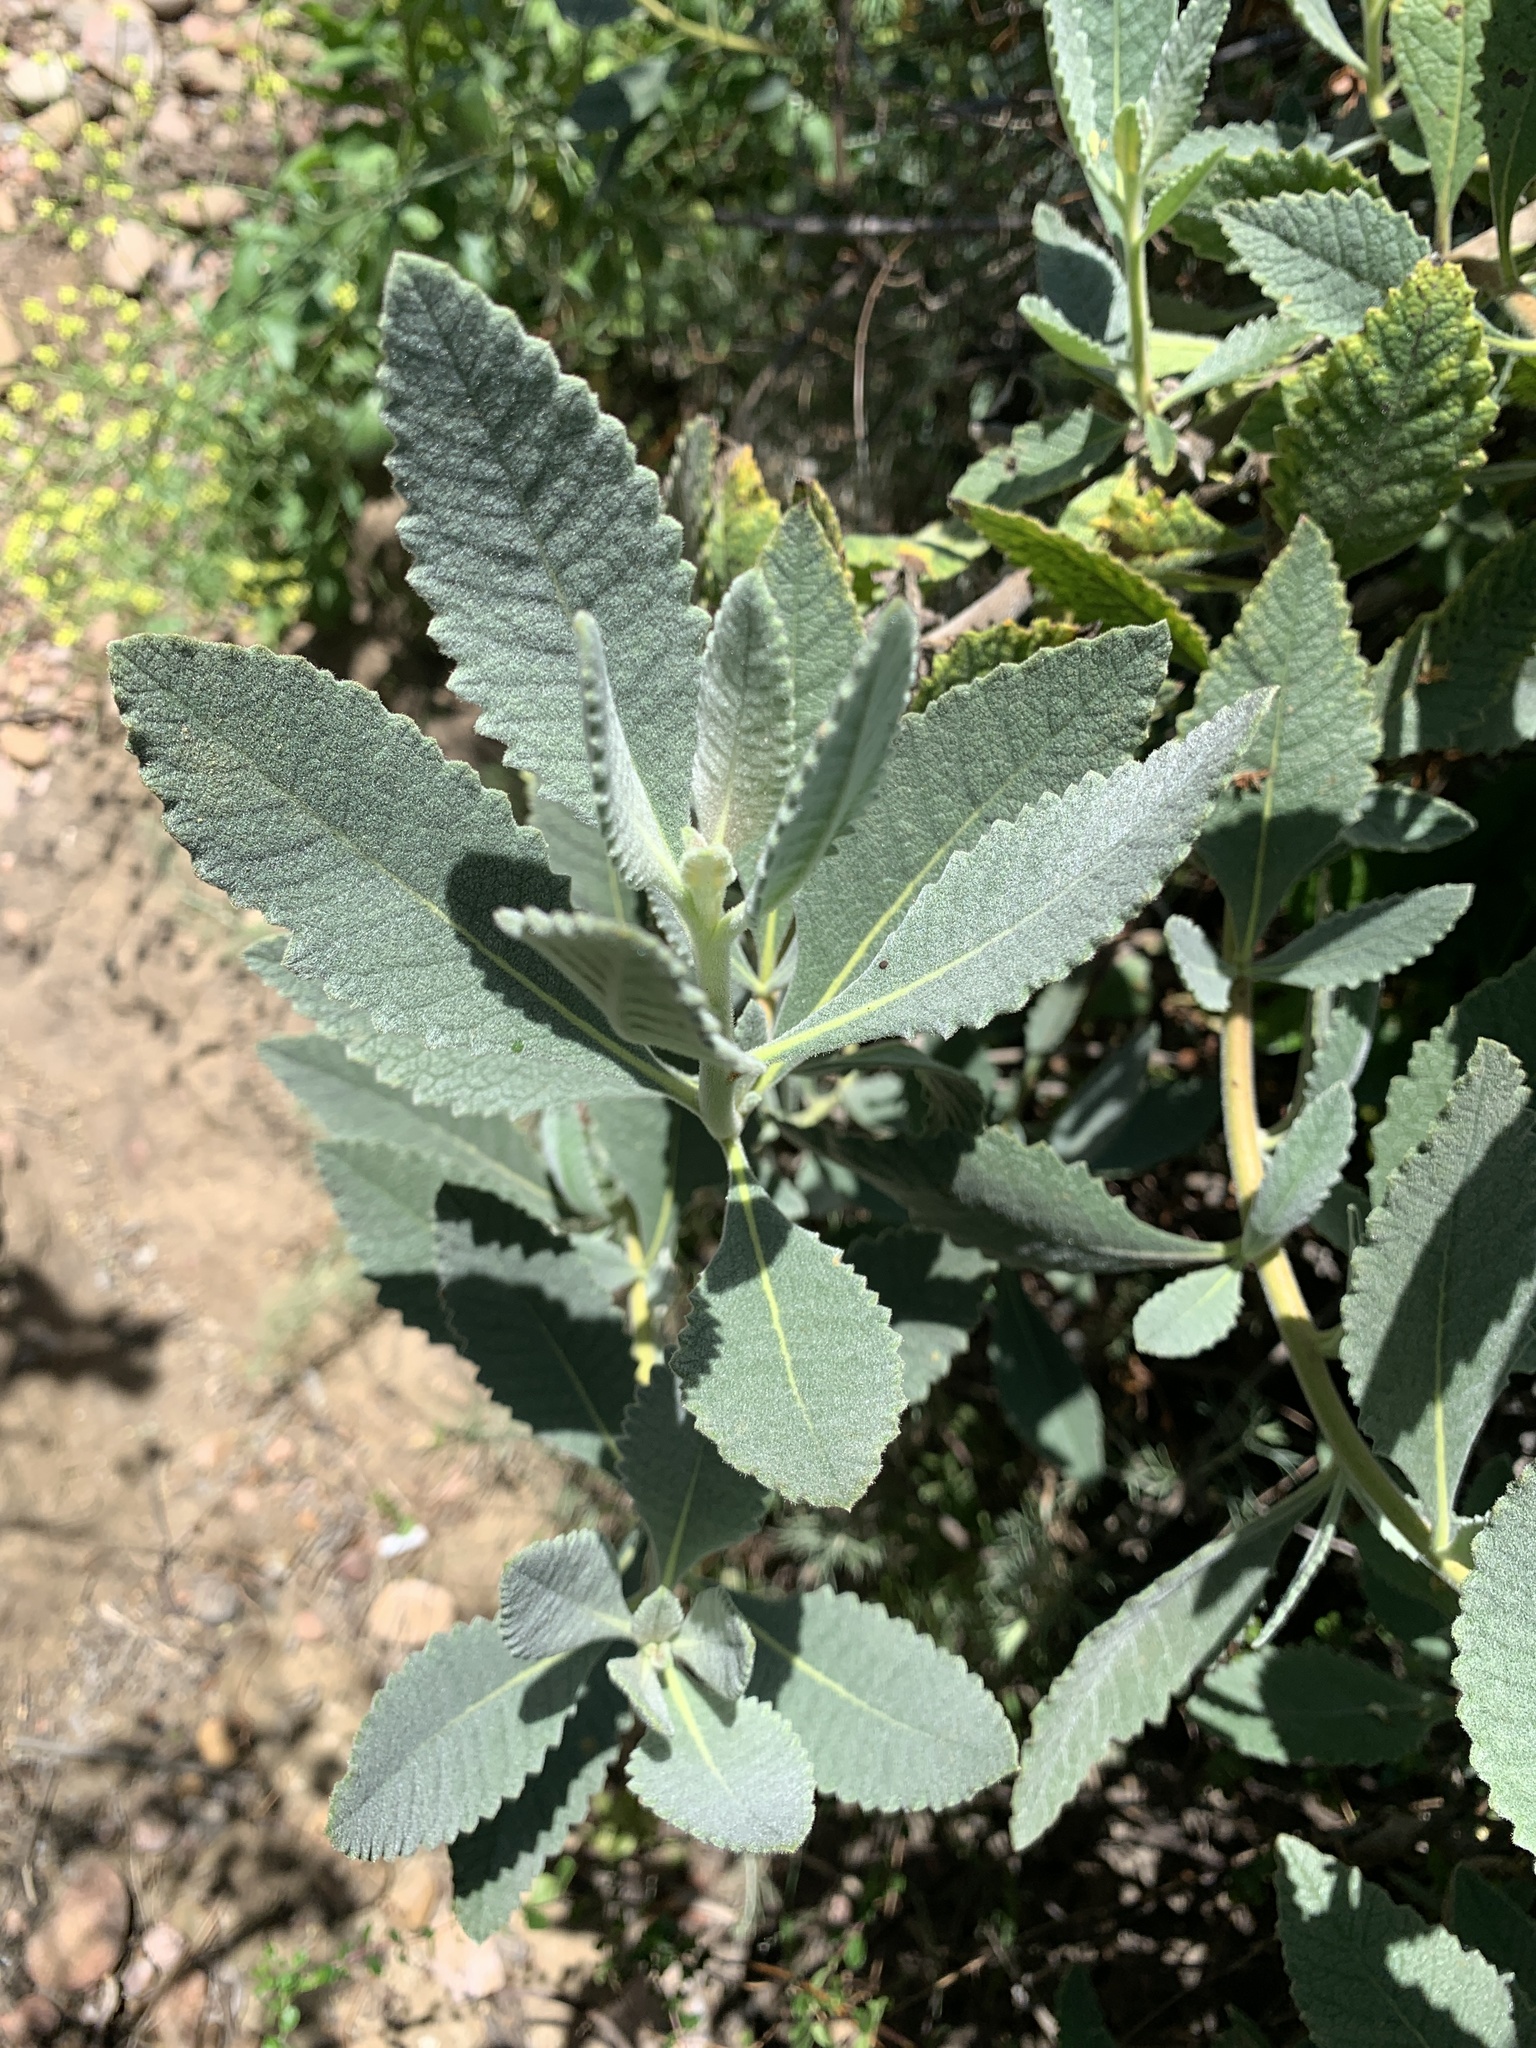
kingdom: Plantae
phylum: Tracheophyta
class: Magnoliopsida
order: Boraginales
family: Namaceae
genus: Eriodictyon
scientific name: Eriodictyon crassifolium
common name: Thick-leaf yerba-santa
